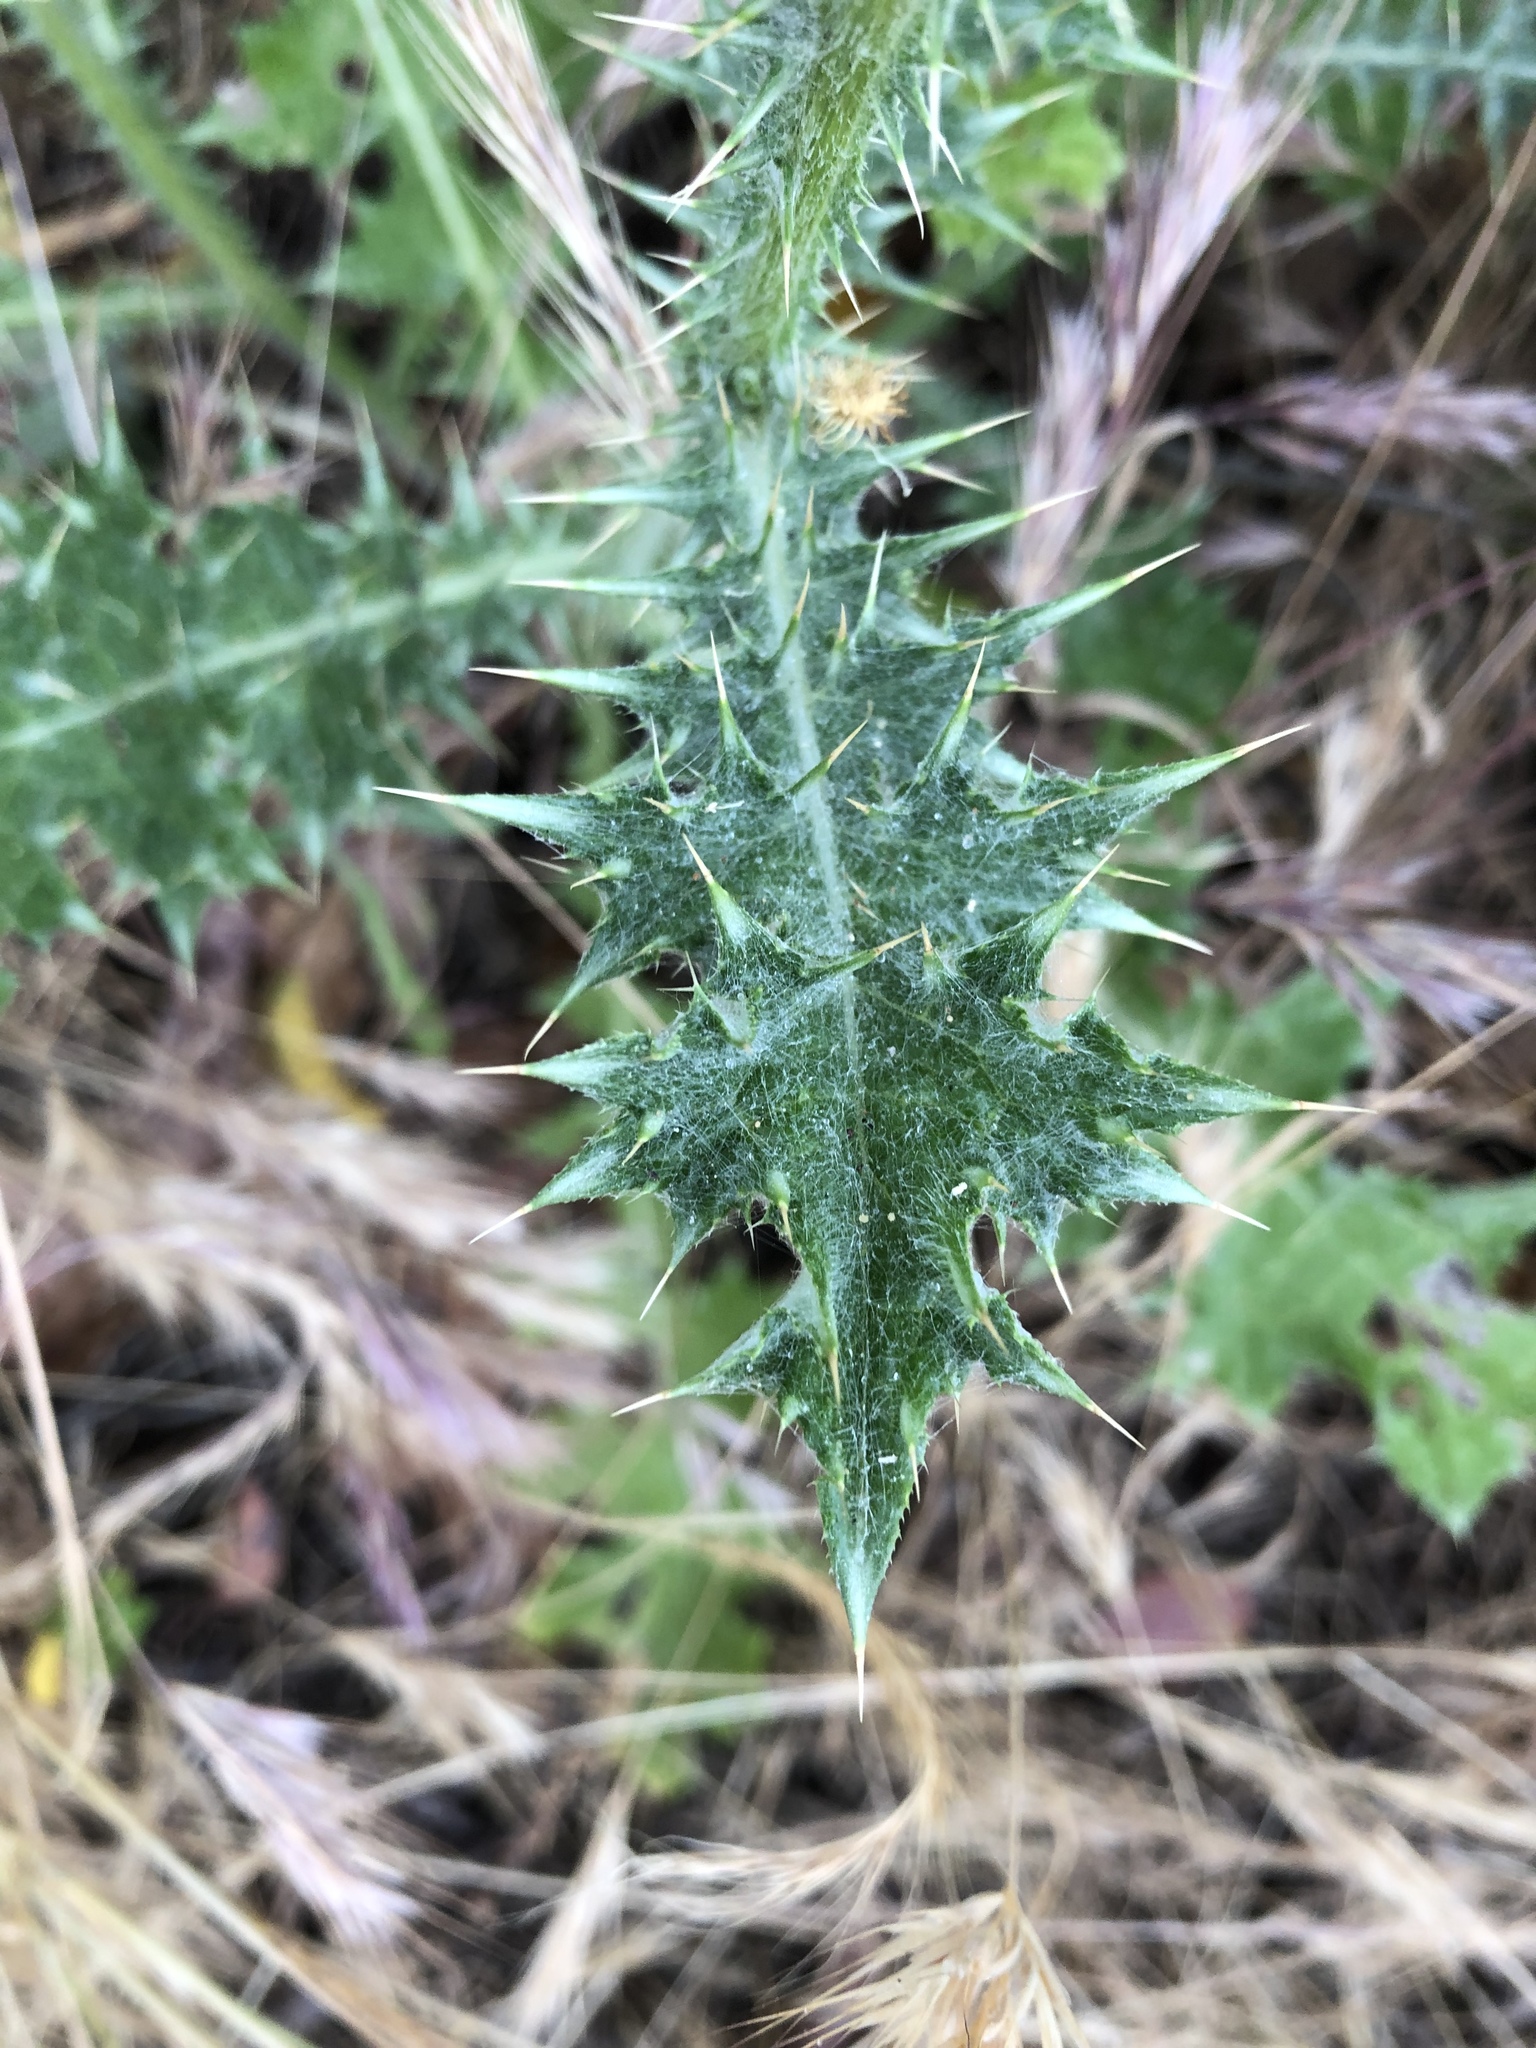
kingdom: Plantae
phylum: Tracheophyta
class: Magnoliopsida
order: Asterales
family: Asteraceae
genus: Carduus
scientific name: Carduus pycnocephalus
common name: Plymouth thistle
